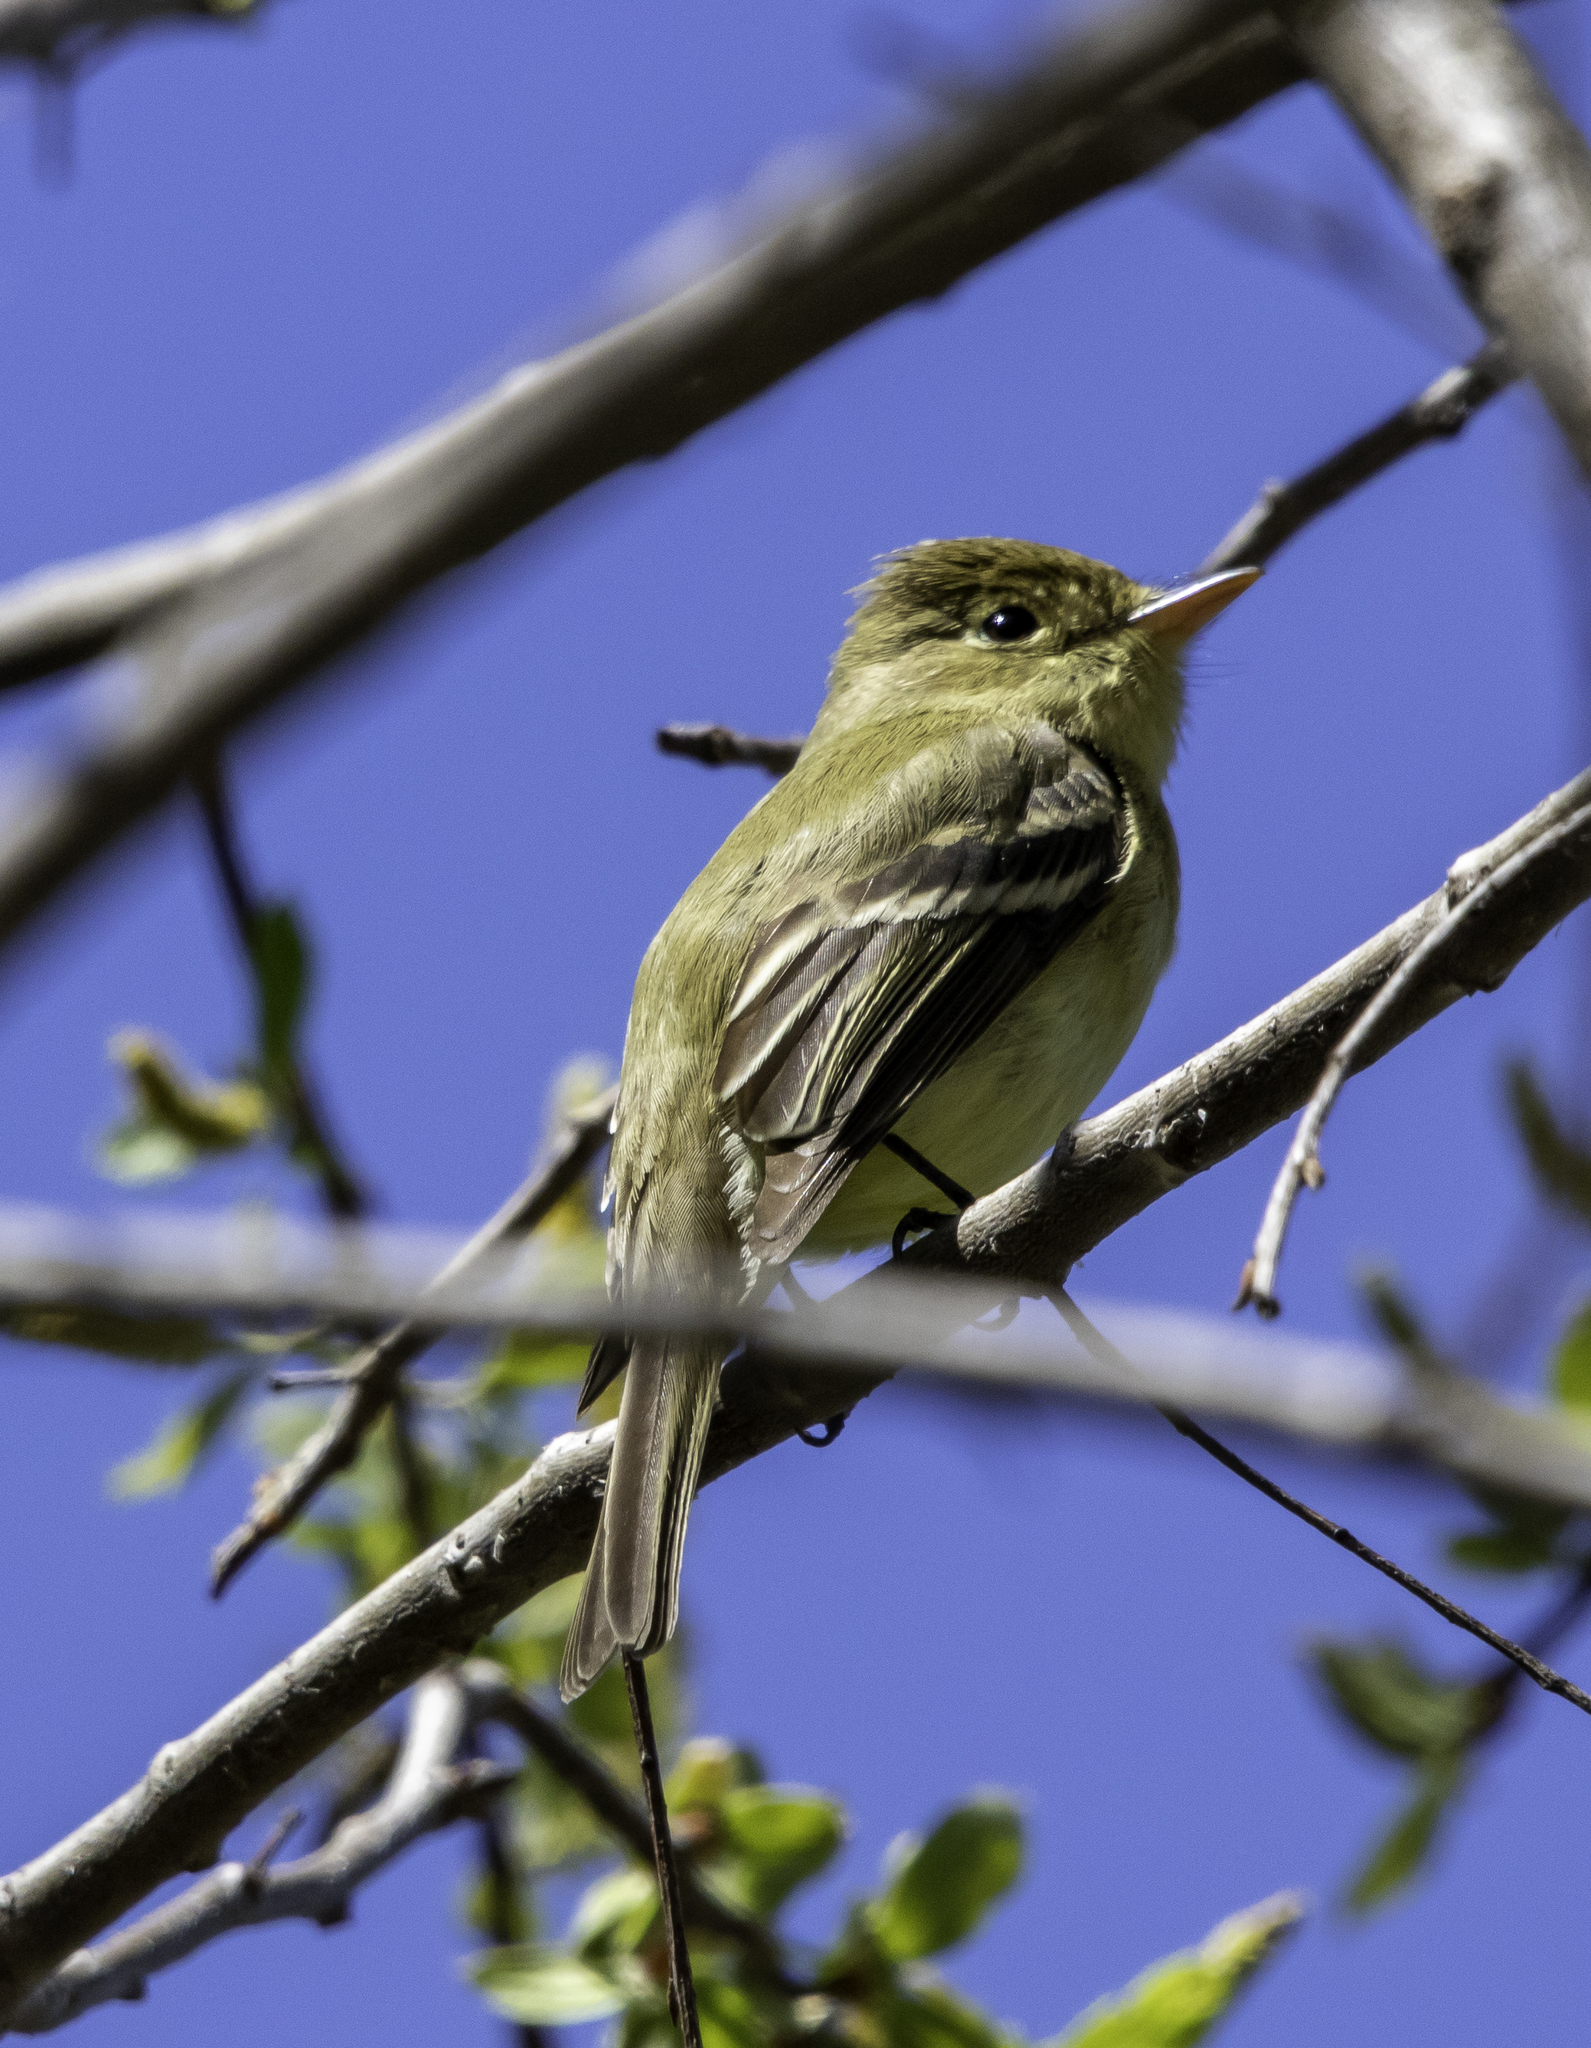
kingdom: Animalia
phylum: Chordata
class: Aves
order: Passeriformes
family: Tyrannidae
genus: Empidonax
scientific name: Empidonax difficilis
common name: Pacific-slope flycatcher
